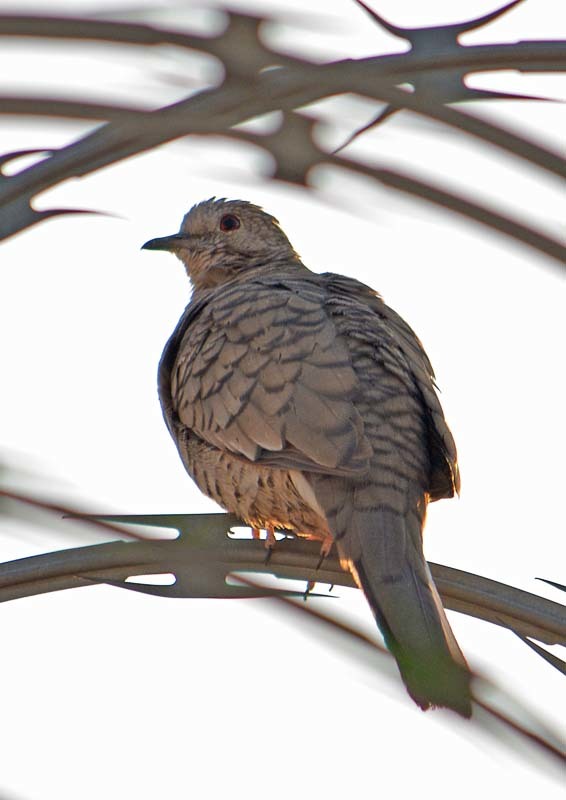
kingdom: Animalia
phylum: Chordata
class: Aves
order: Columbiformes
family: Columbidae
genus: Columbina
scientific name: Columbina inca
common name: Inca dove
